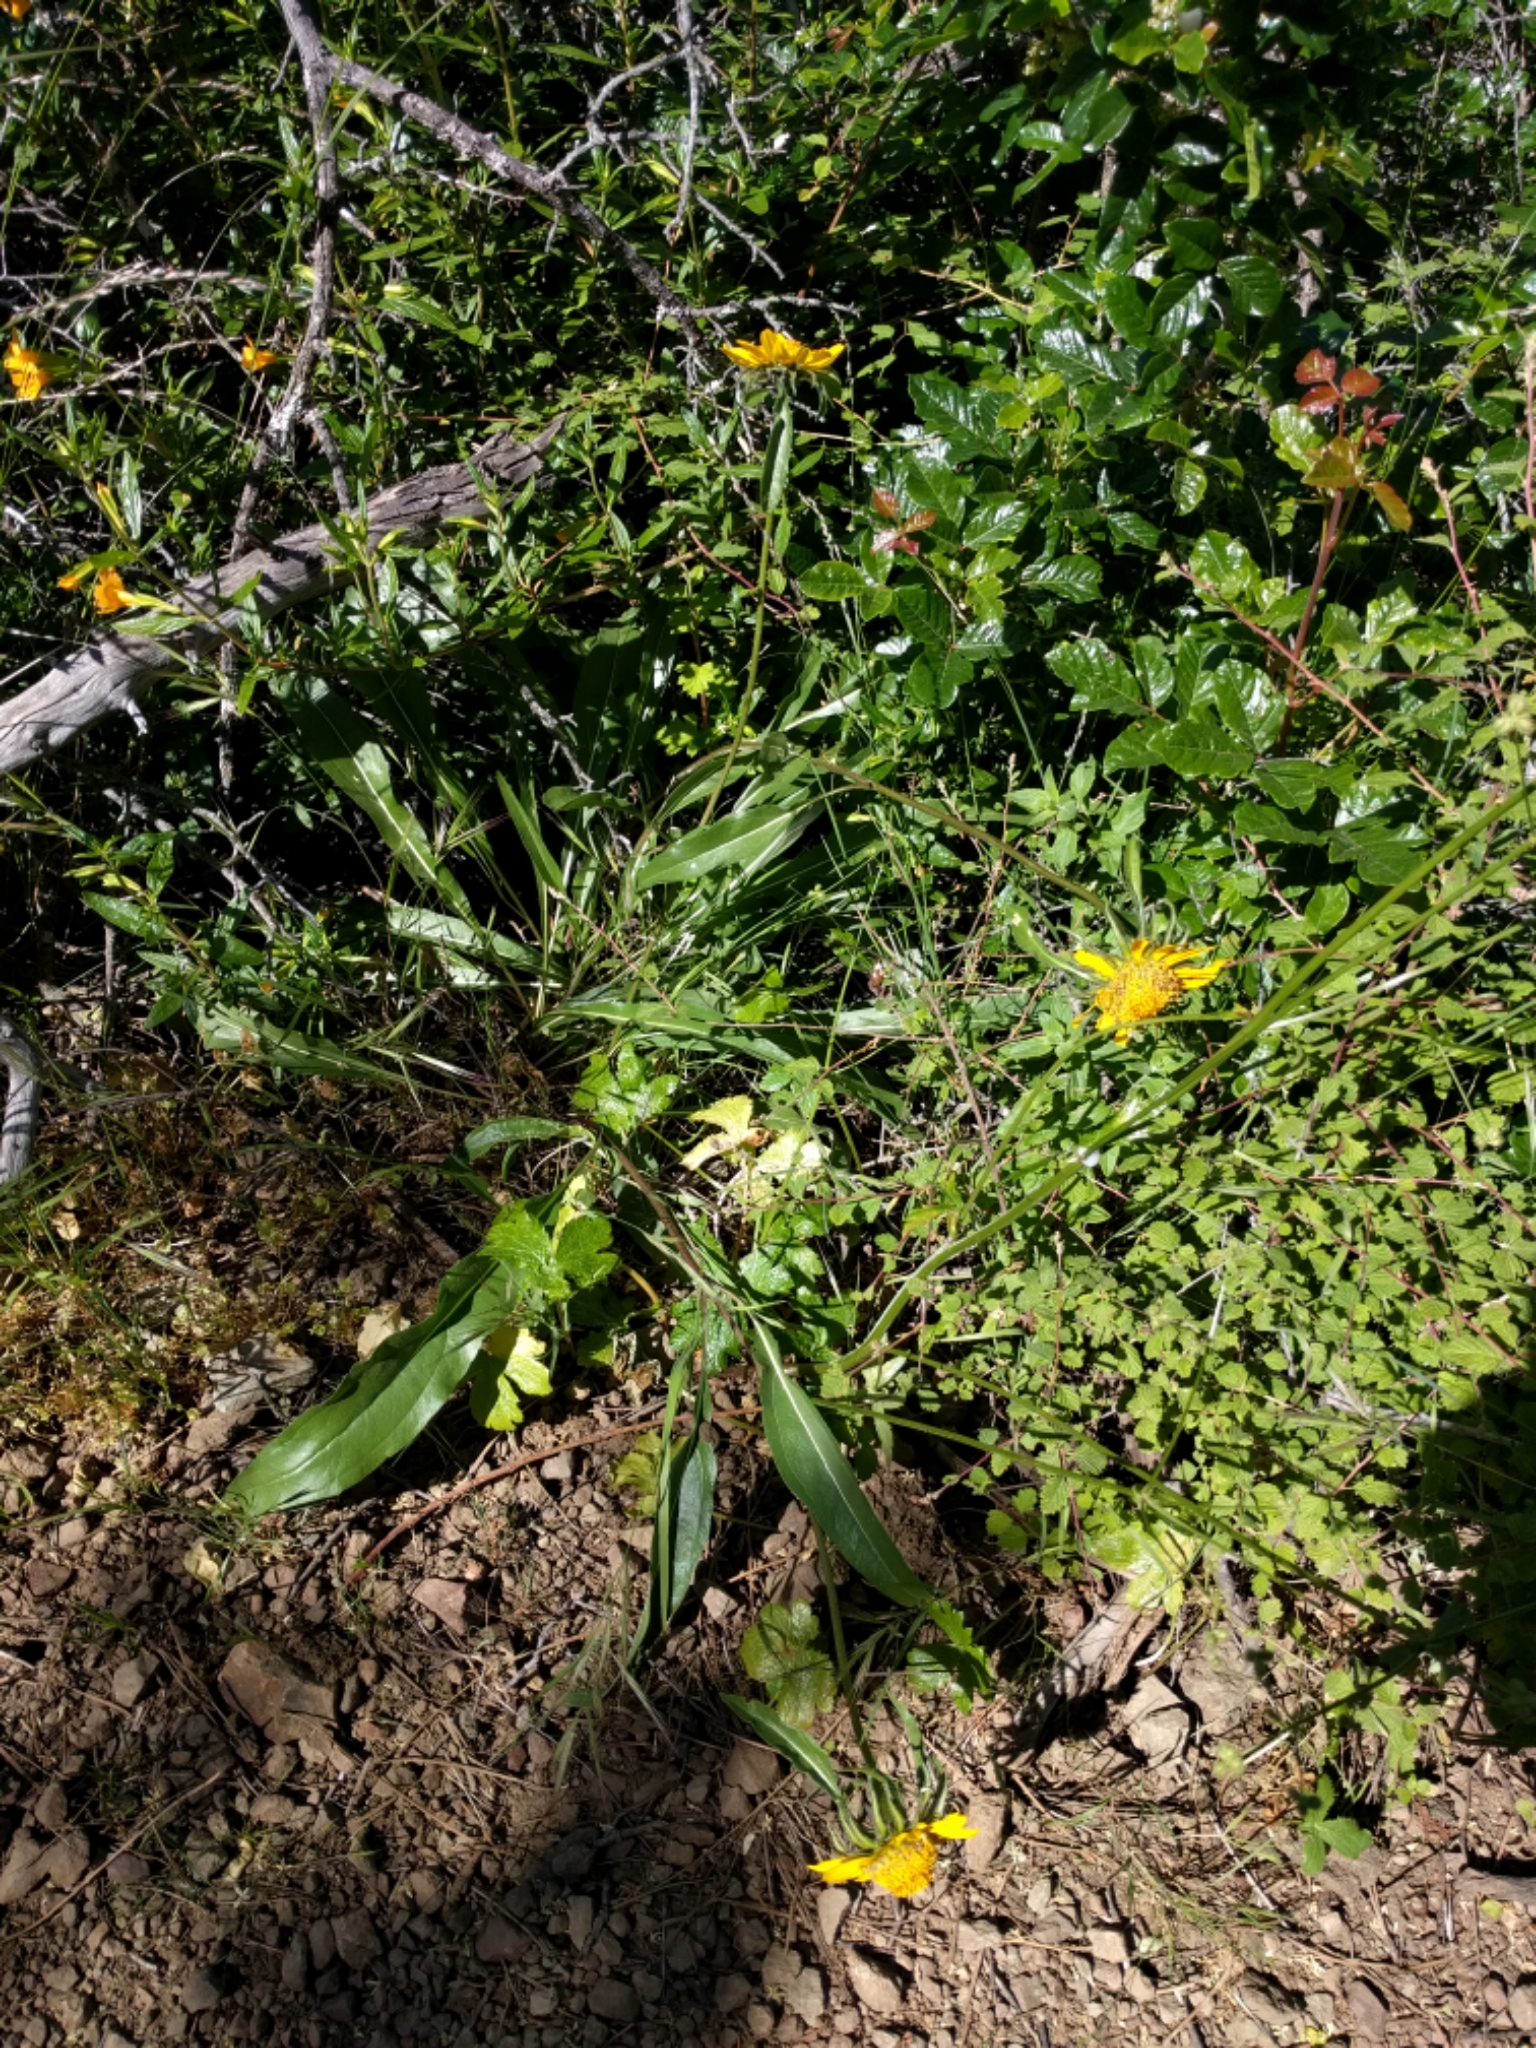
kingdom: Plantae
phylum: Tracheophyta
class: Magnoliopsida
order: Asterales
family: Asteraceae
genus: Helianthella
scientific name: Helianthella castanea
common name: Diablo helianthella
